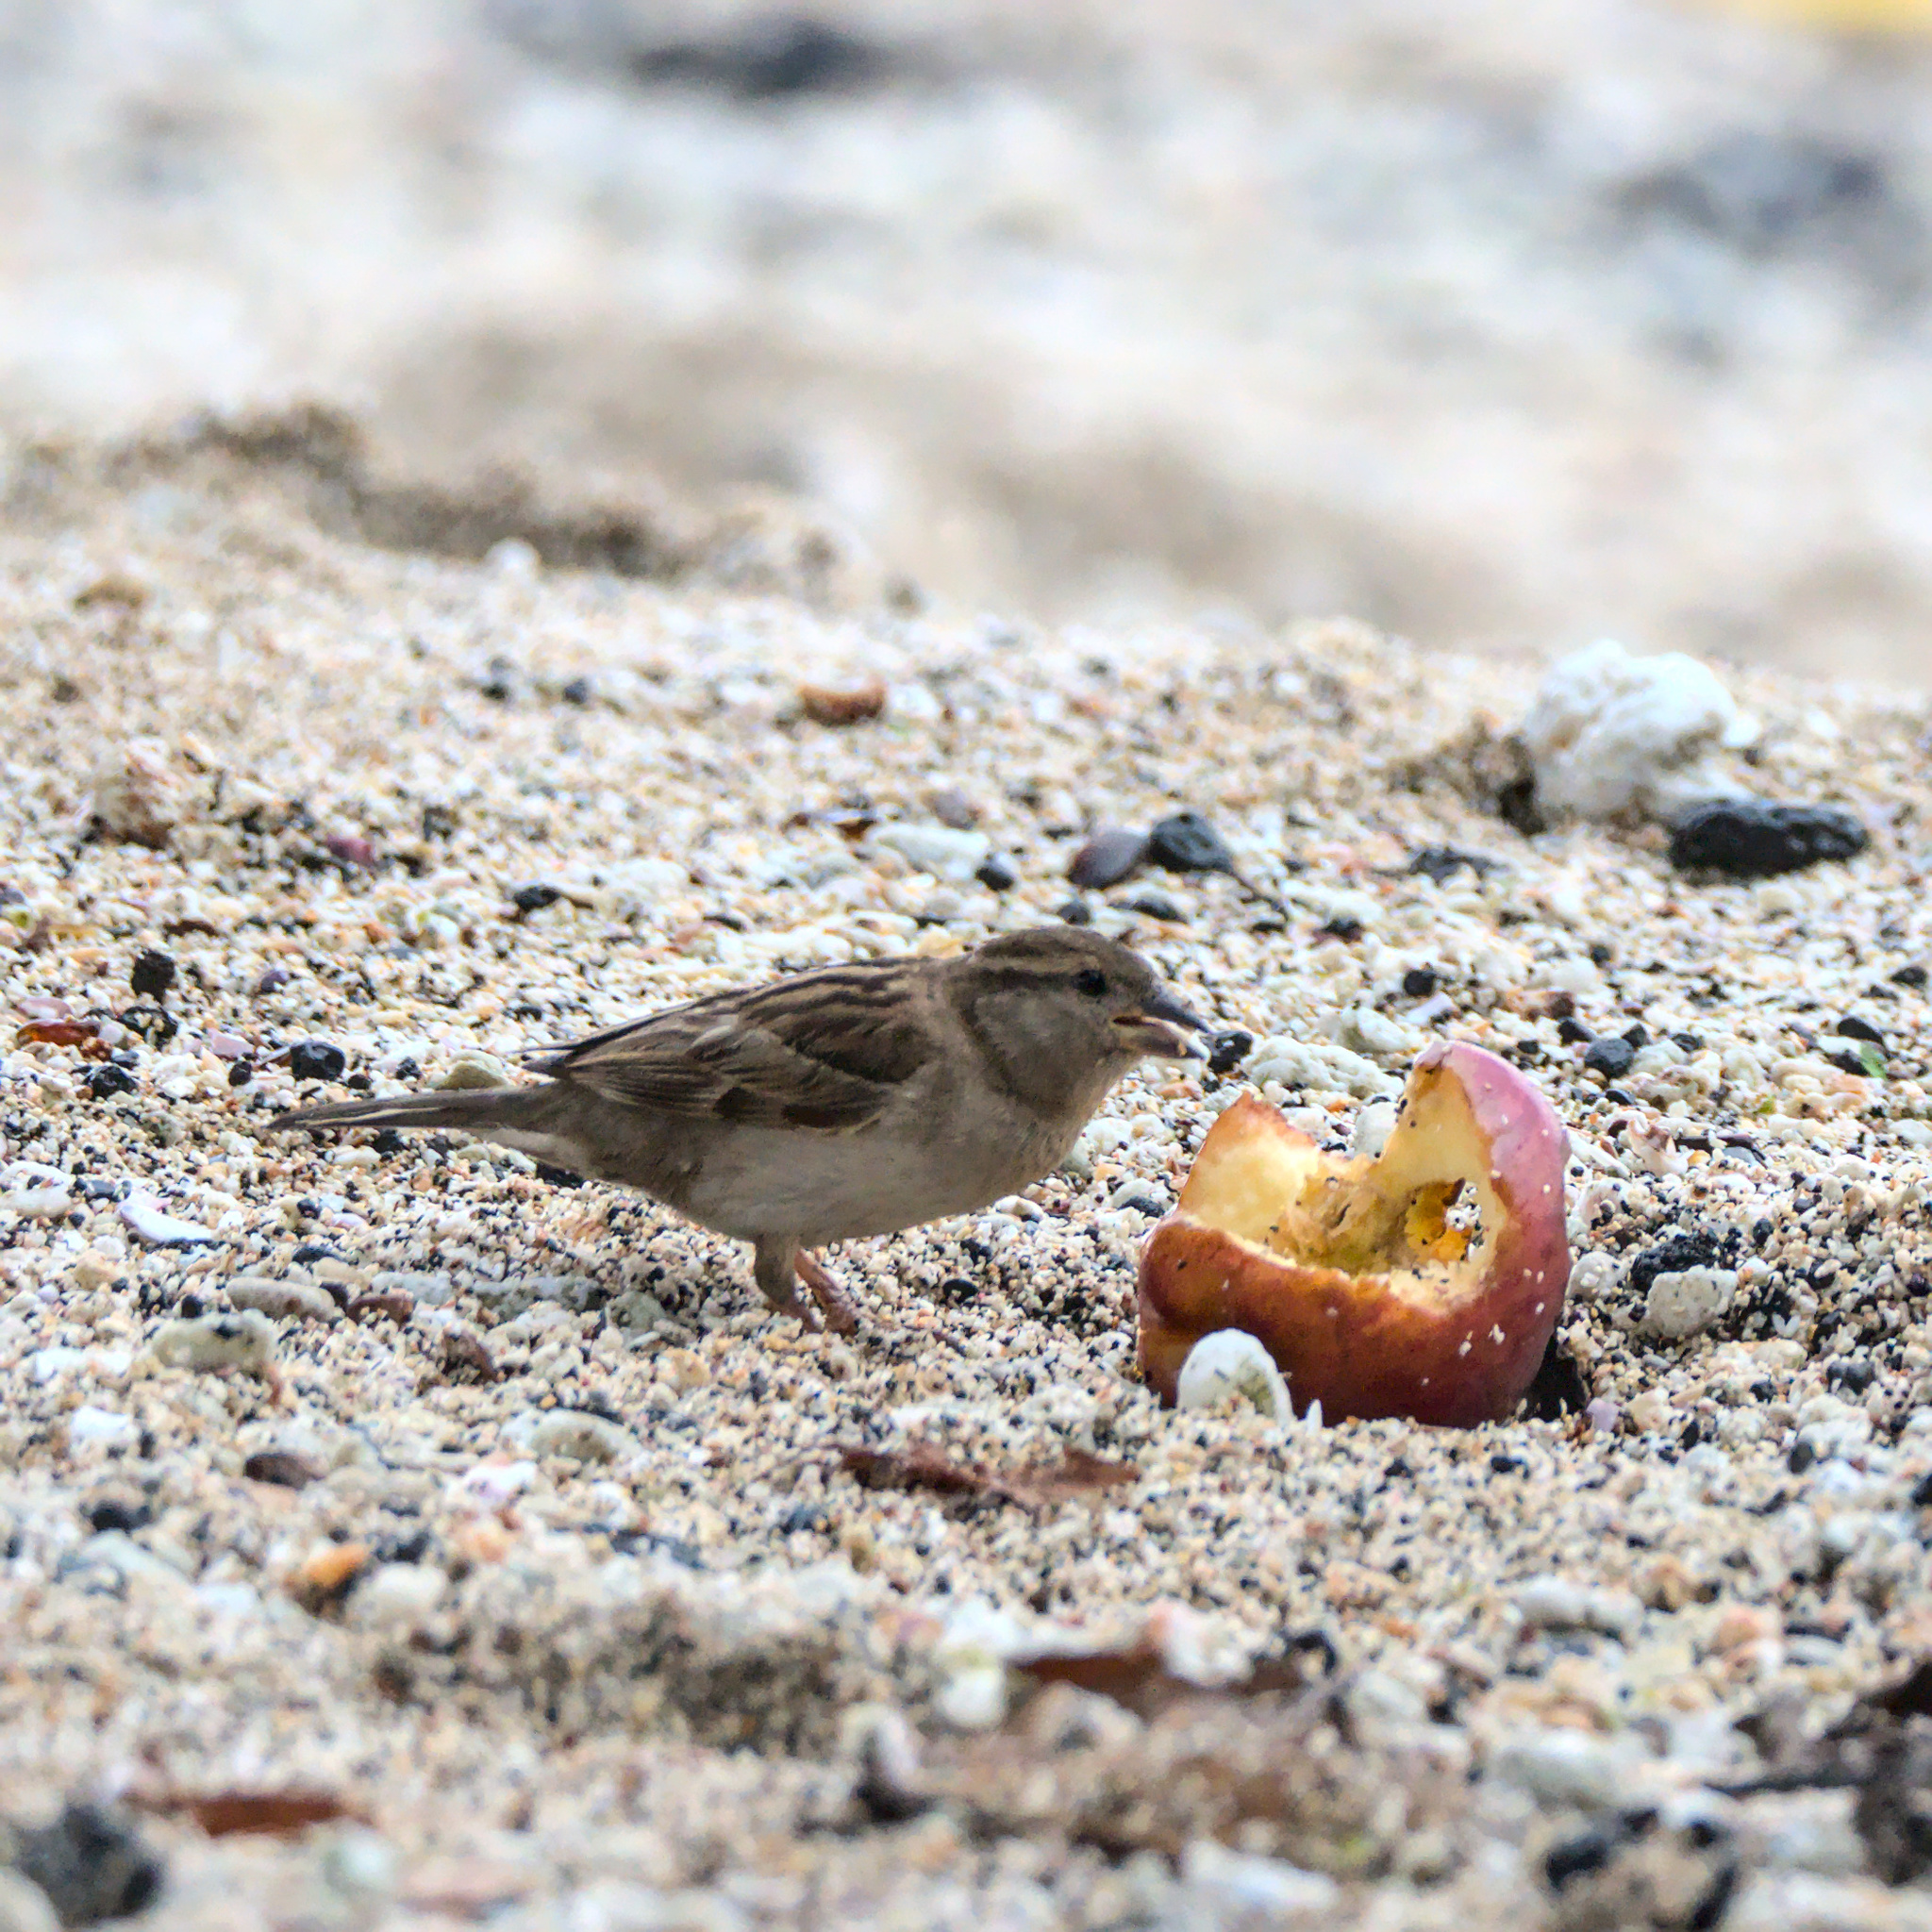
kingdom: Animalia
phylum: Chordata
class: Aves
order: Passeriformes
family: Passeridae
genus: Passer
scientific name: Passer domesticus
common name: House sparrow
